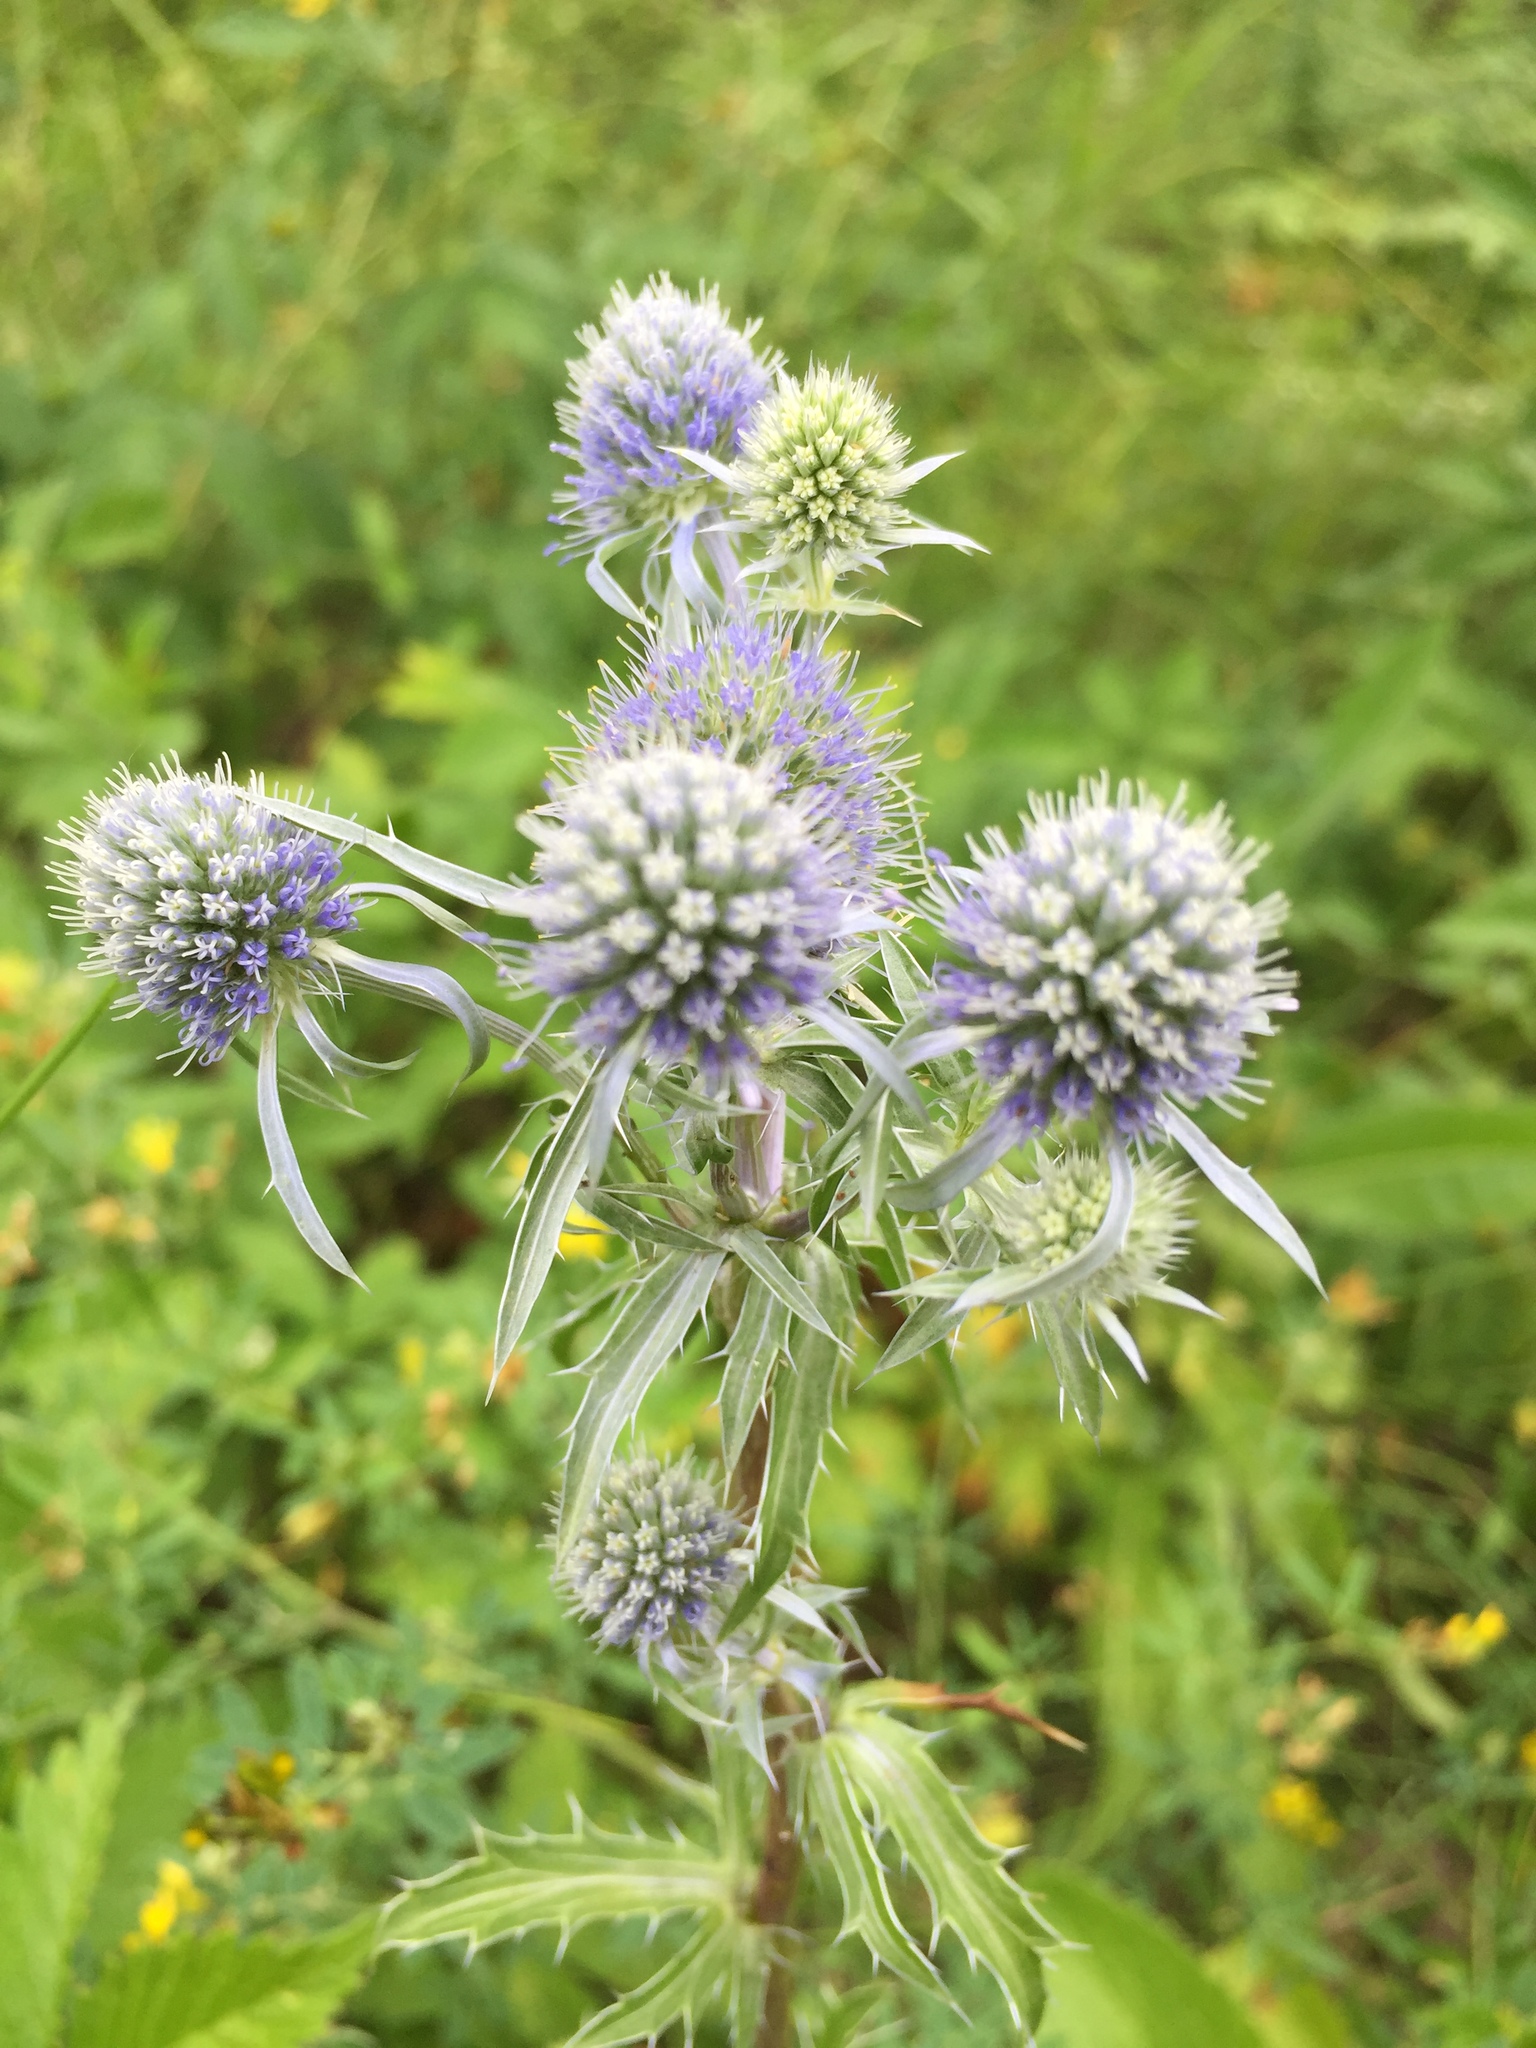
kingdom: Plantae
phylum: Tracheophyta
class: Magnoliopsida
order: Apiales
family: Apiaceae
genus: Eryngium
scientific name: Eryngium planum
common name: Blue eryngo
